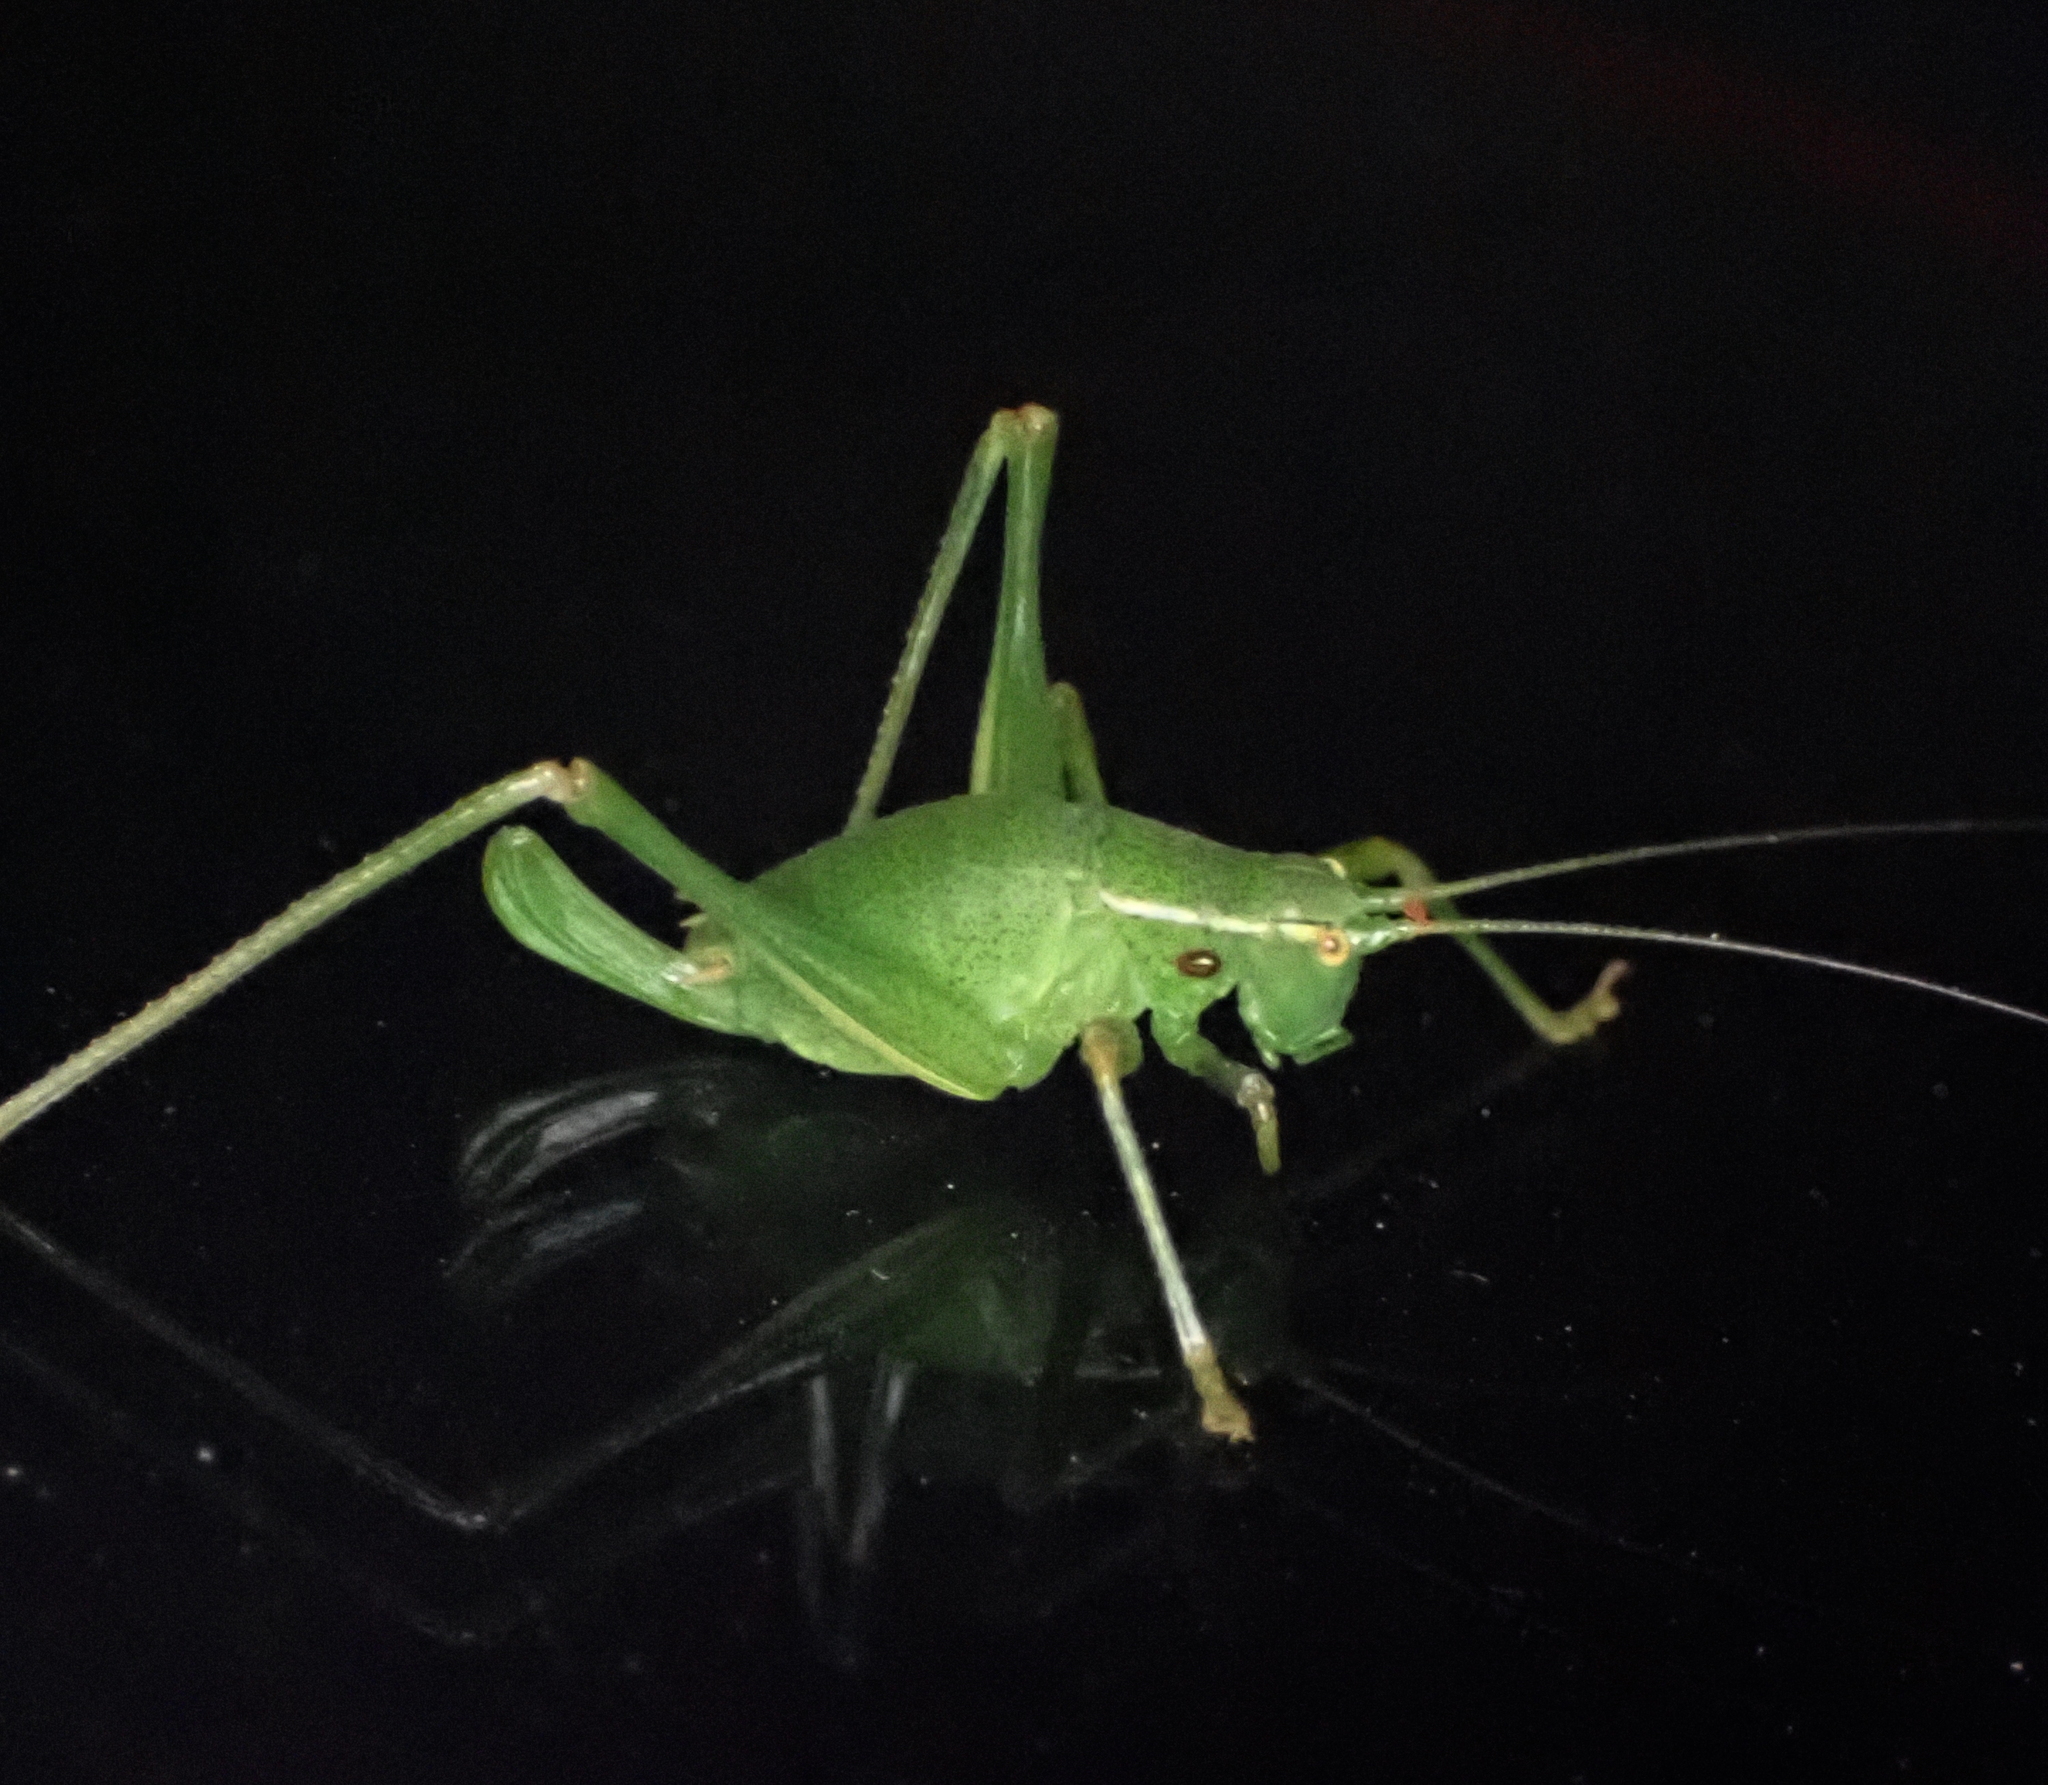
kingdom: Animalia
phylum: Arthropoda
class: Insecta
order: Orthoptera
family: Tettigoniidae
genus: Barbitistes
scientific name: Barbitistes serricauda
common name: Saw-tailed bush-cricket
